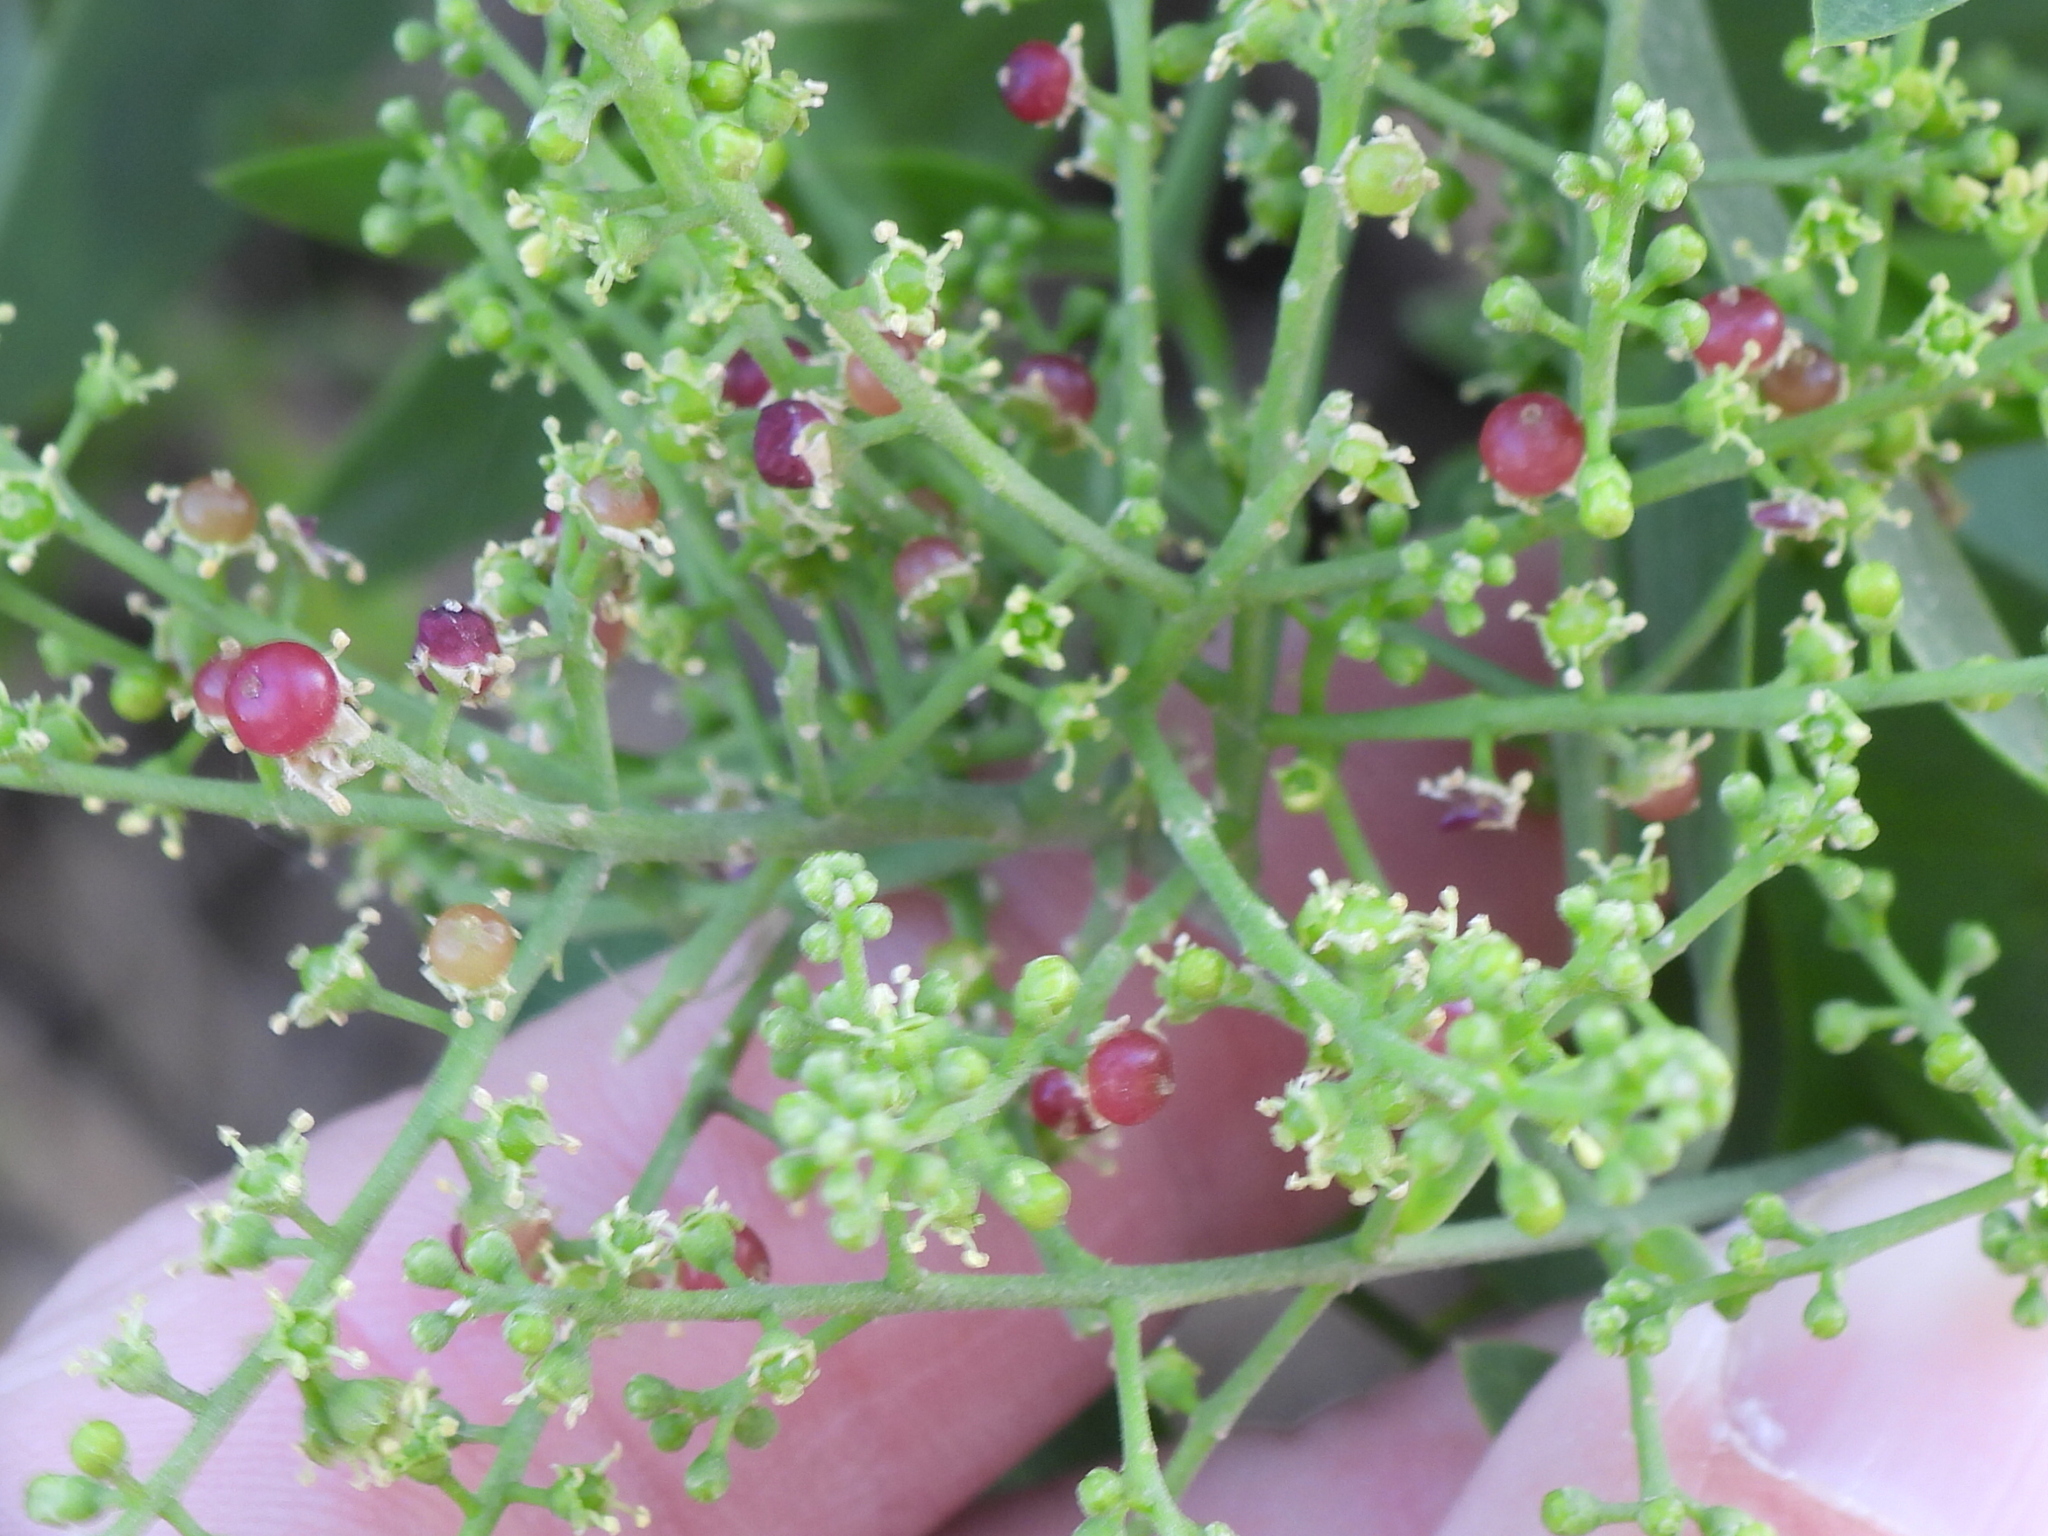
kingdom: Plantae
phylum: Tracheophyta
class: Magnoliopsida
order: Brassicales
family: Salvadoraceae
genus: Salvadora
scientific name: Salvadora persica
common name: Toothbrushtree
